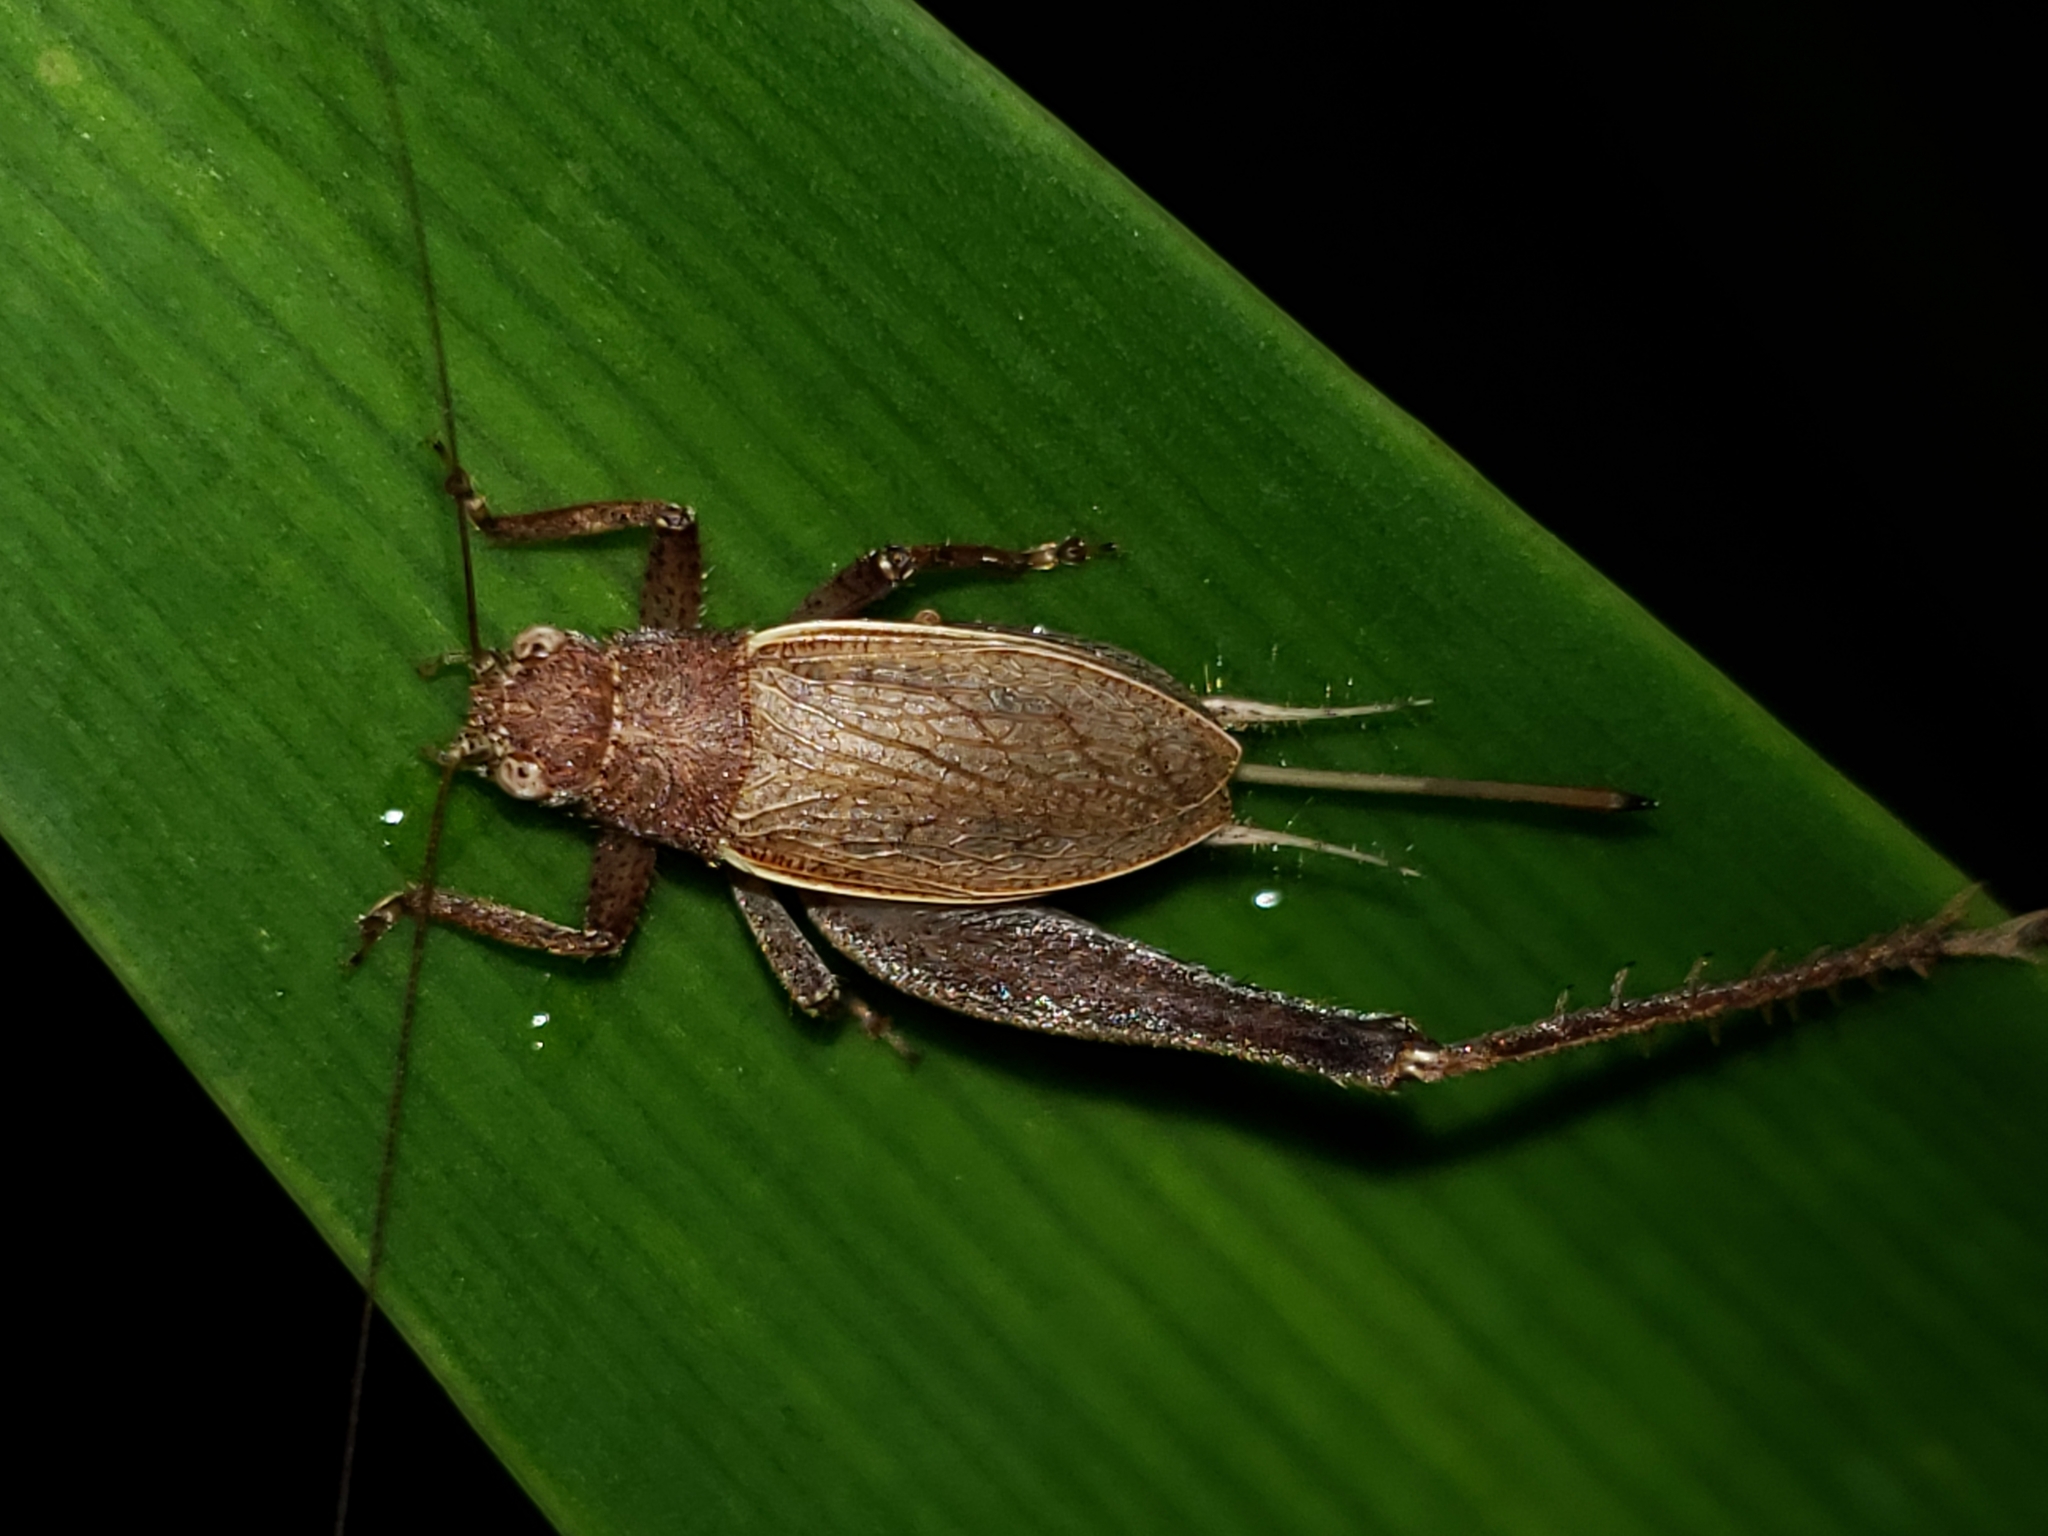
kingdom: Animalia
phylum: Arthropoda
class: Insecta
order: Orthoptera
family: Gryllidae
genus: Hapithus
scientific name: Hapithus agitator
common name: Restless bush cricket
